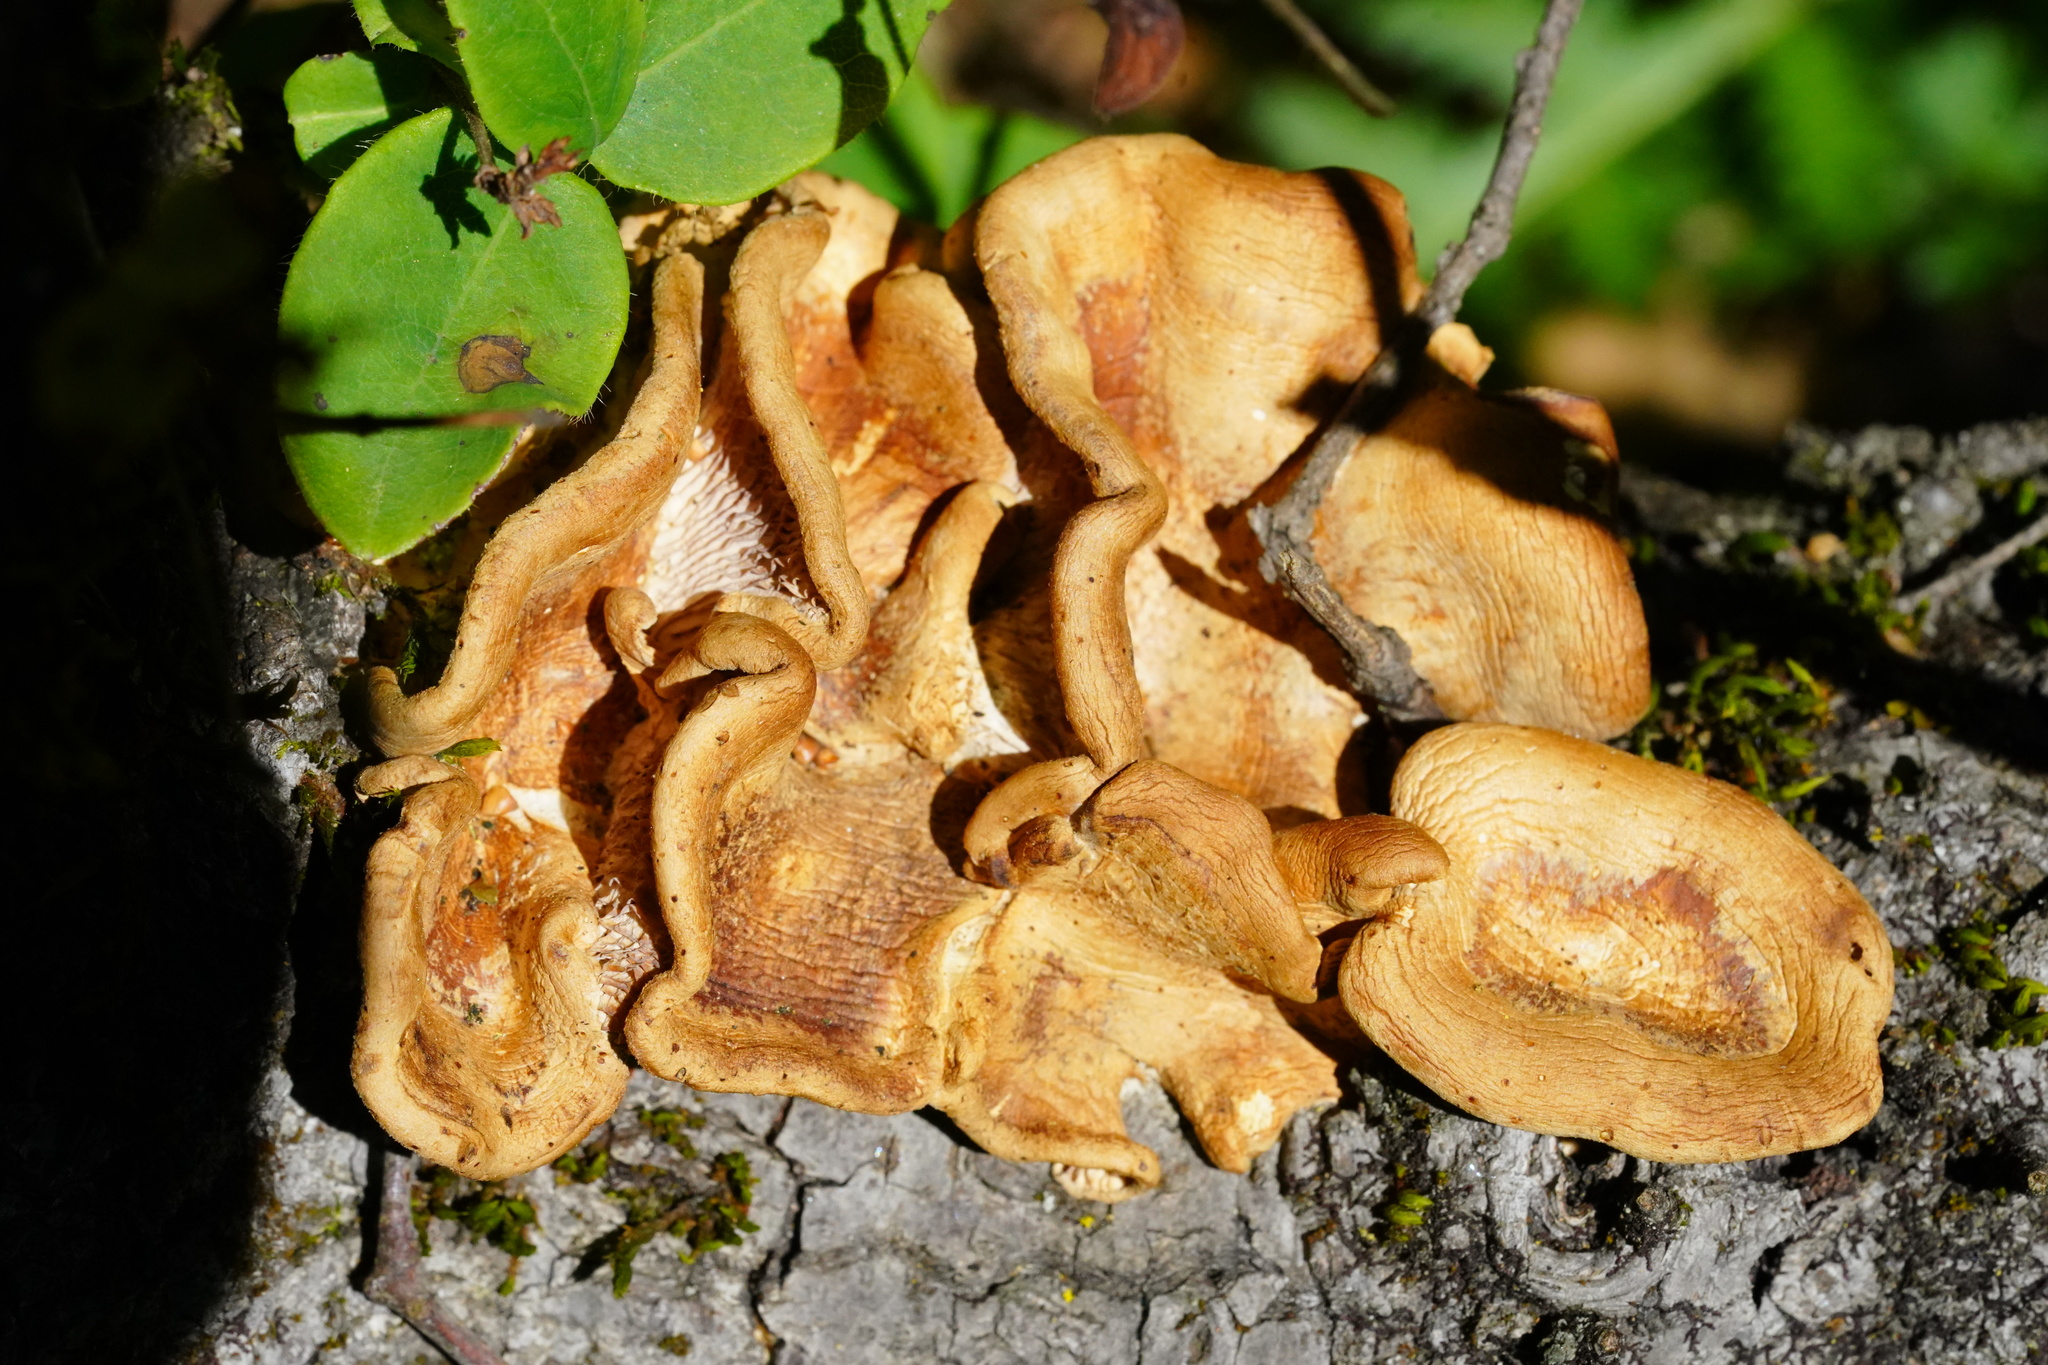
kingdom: Fungi
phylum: Basidiomycota
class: Agaricomycetes
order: Polyporales
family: Panaceae
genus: Panus
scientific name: Panus conchatus
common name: Lilac oysterling
